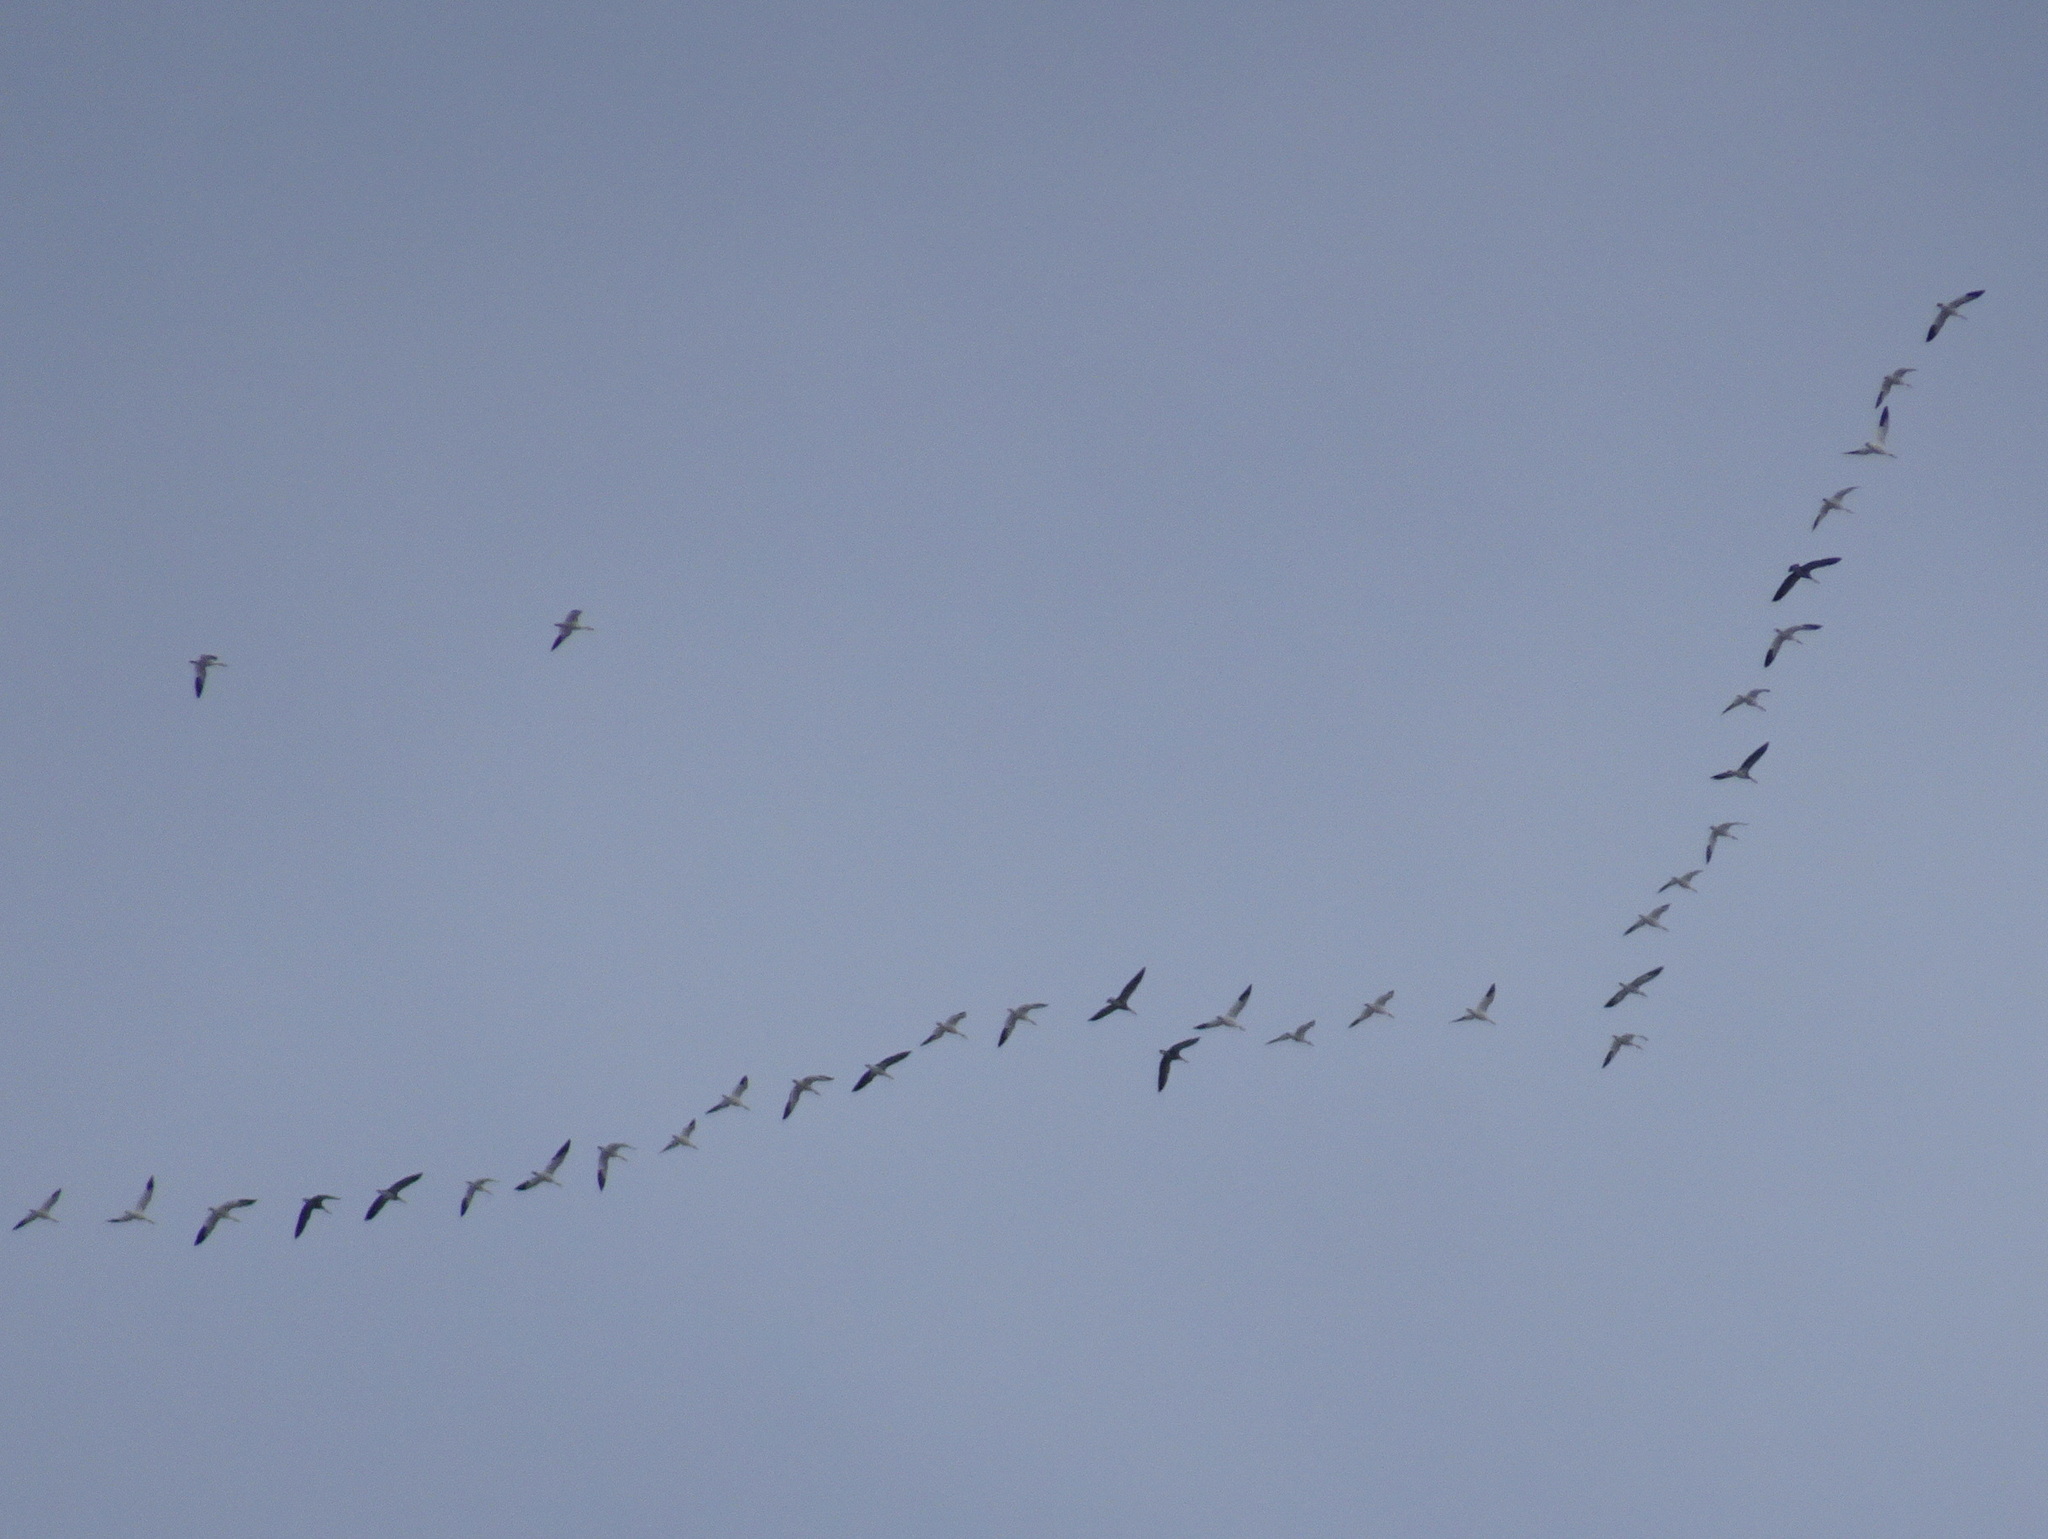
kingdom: Animalia
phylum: Chordata
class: Aves
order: Anseriformes
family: Anatidae
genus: Anser
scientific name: Anser caerulescens
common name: Snow goose
